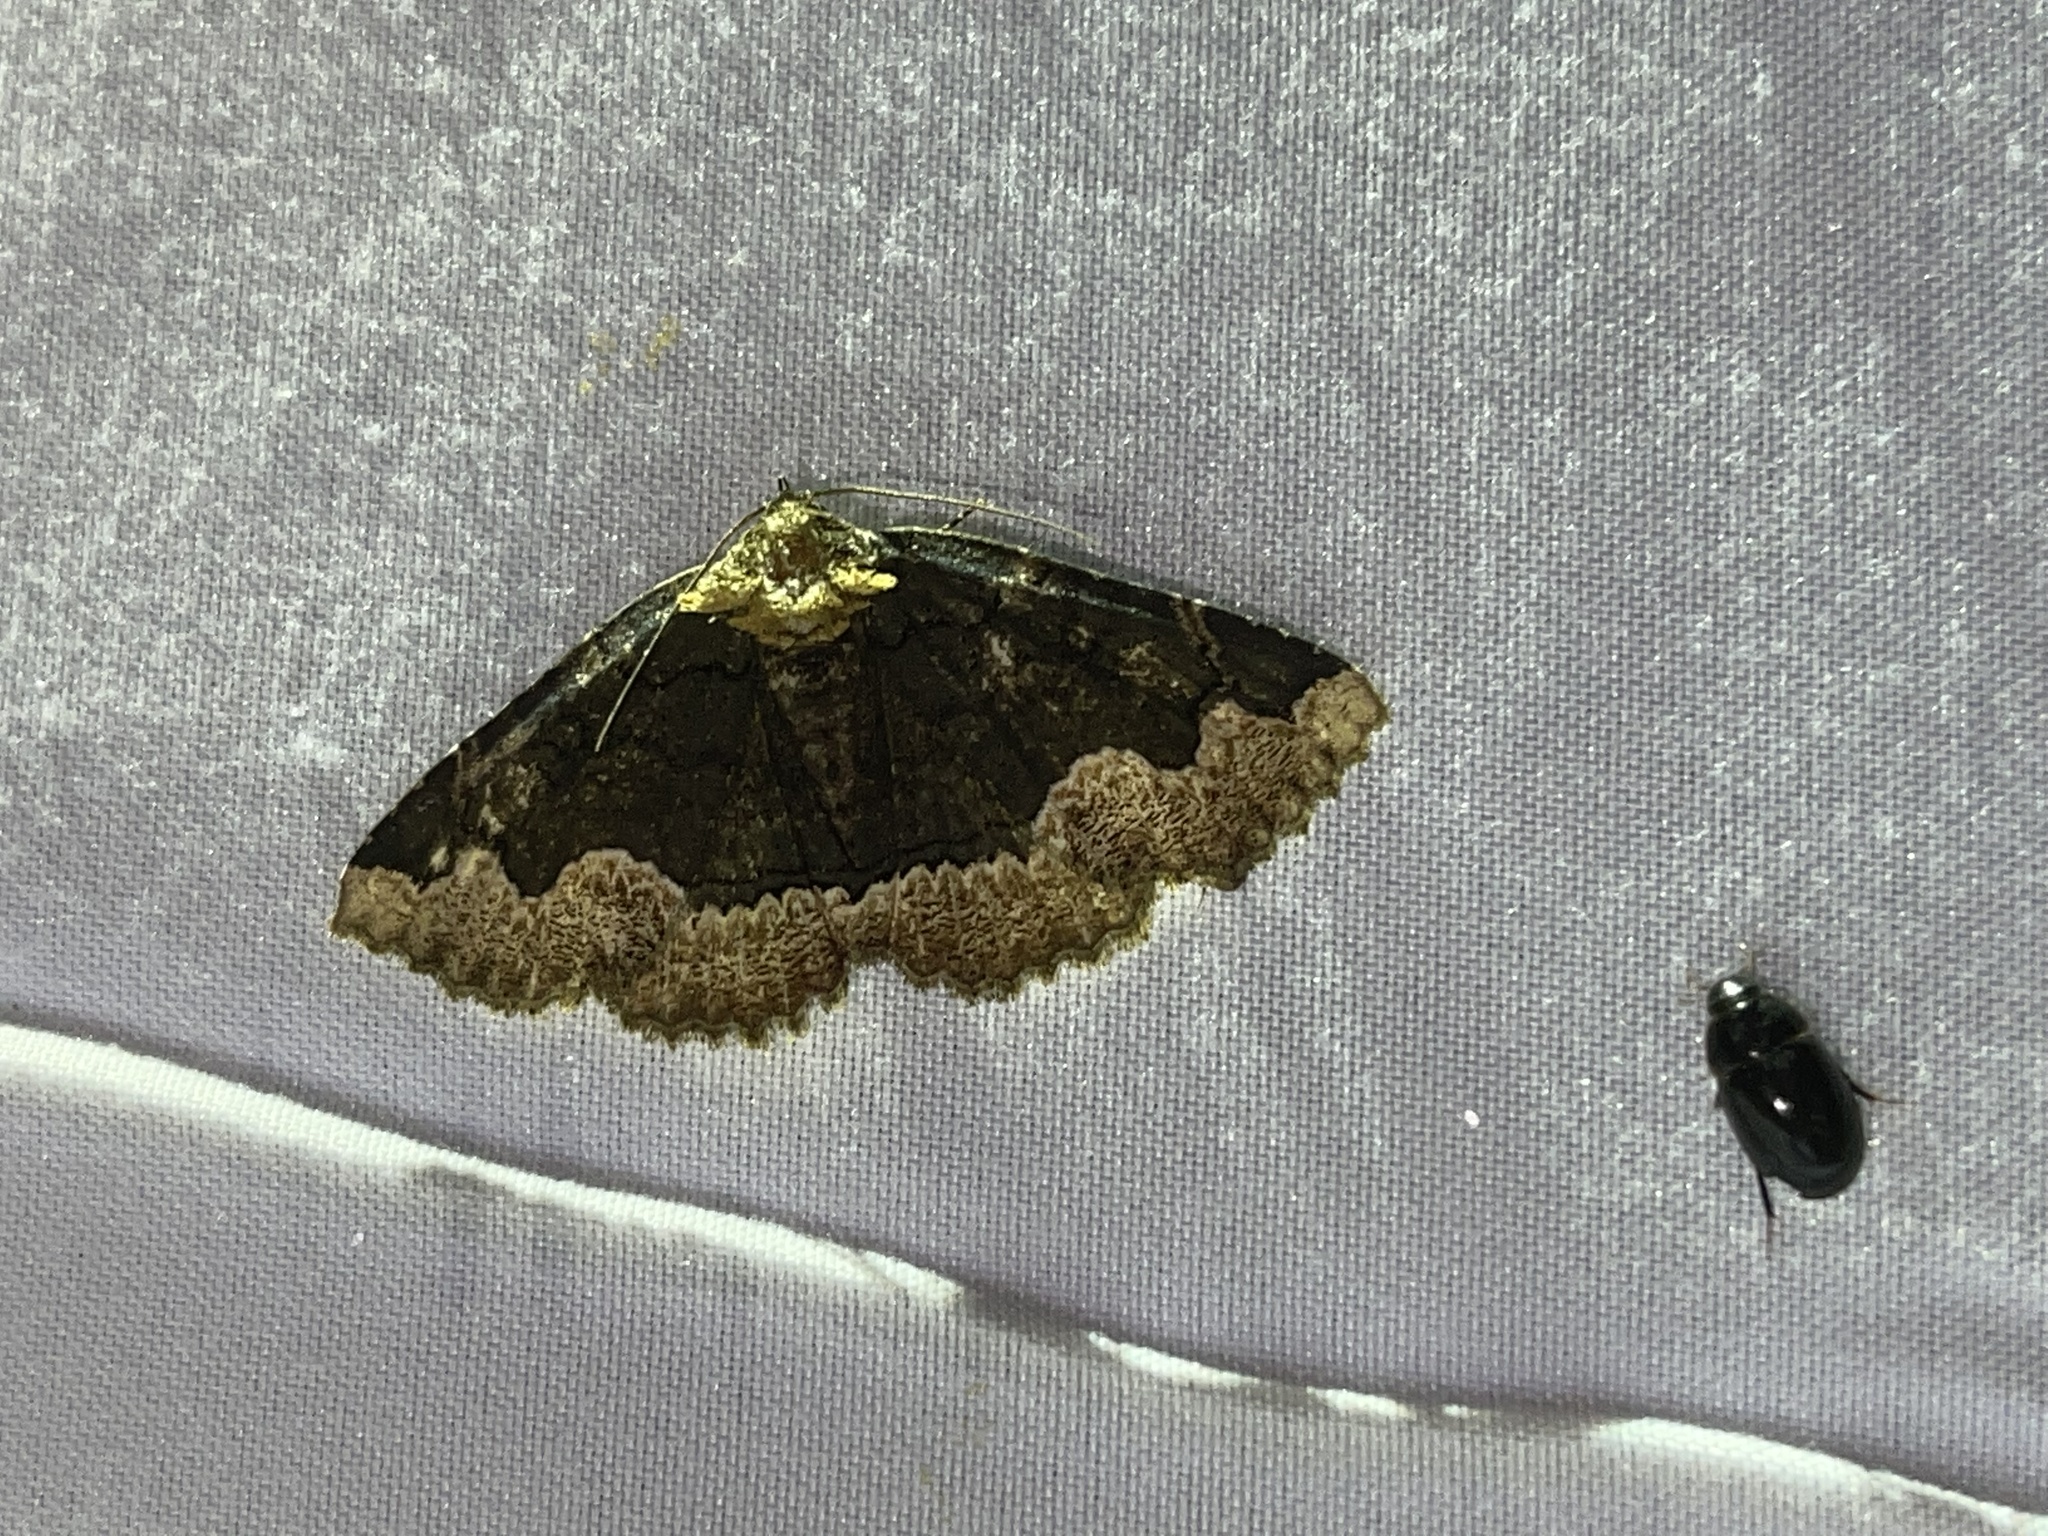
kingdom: Animalia
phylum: Arthropoda
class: Insecta
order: Lepidoptera
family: Erebidae
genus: Zale
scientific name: Zale horrida
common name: Horrid zale moth
